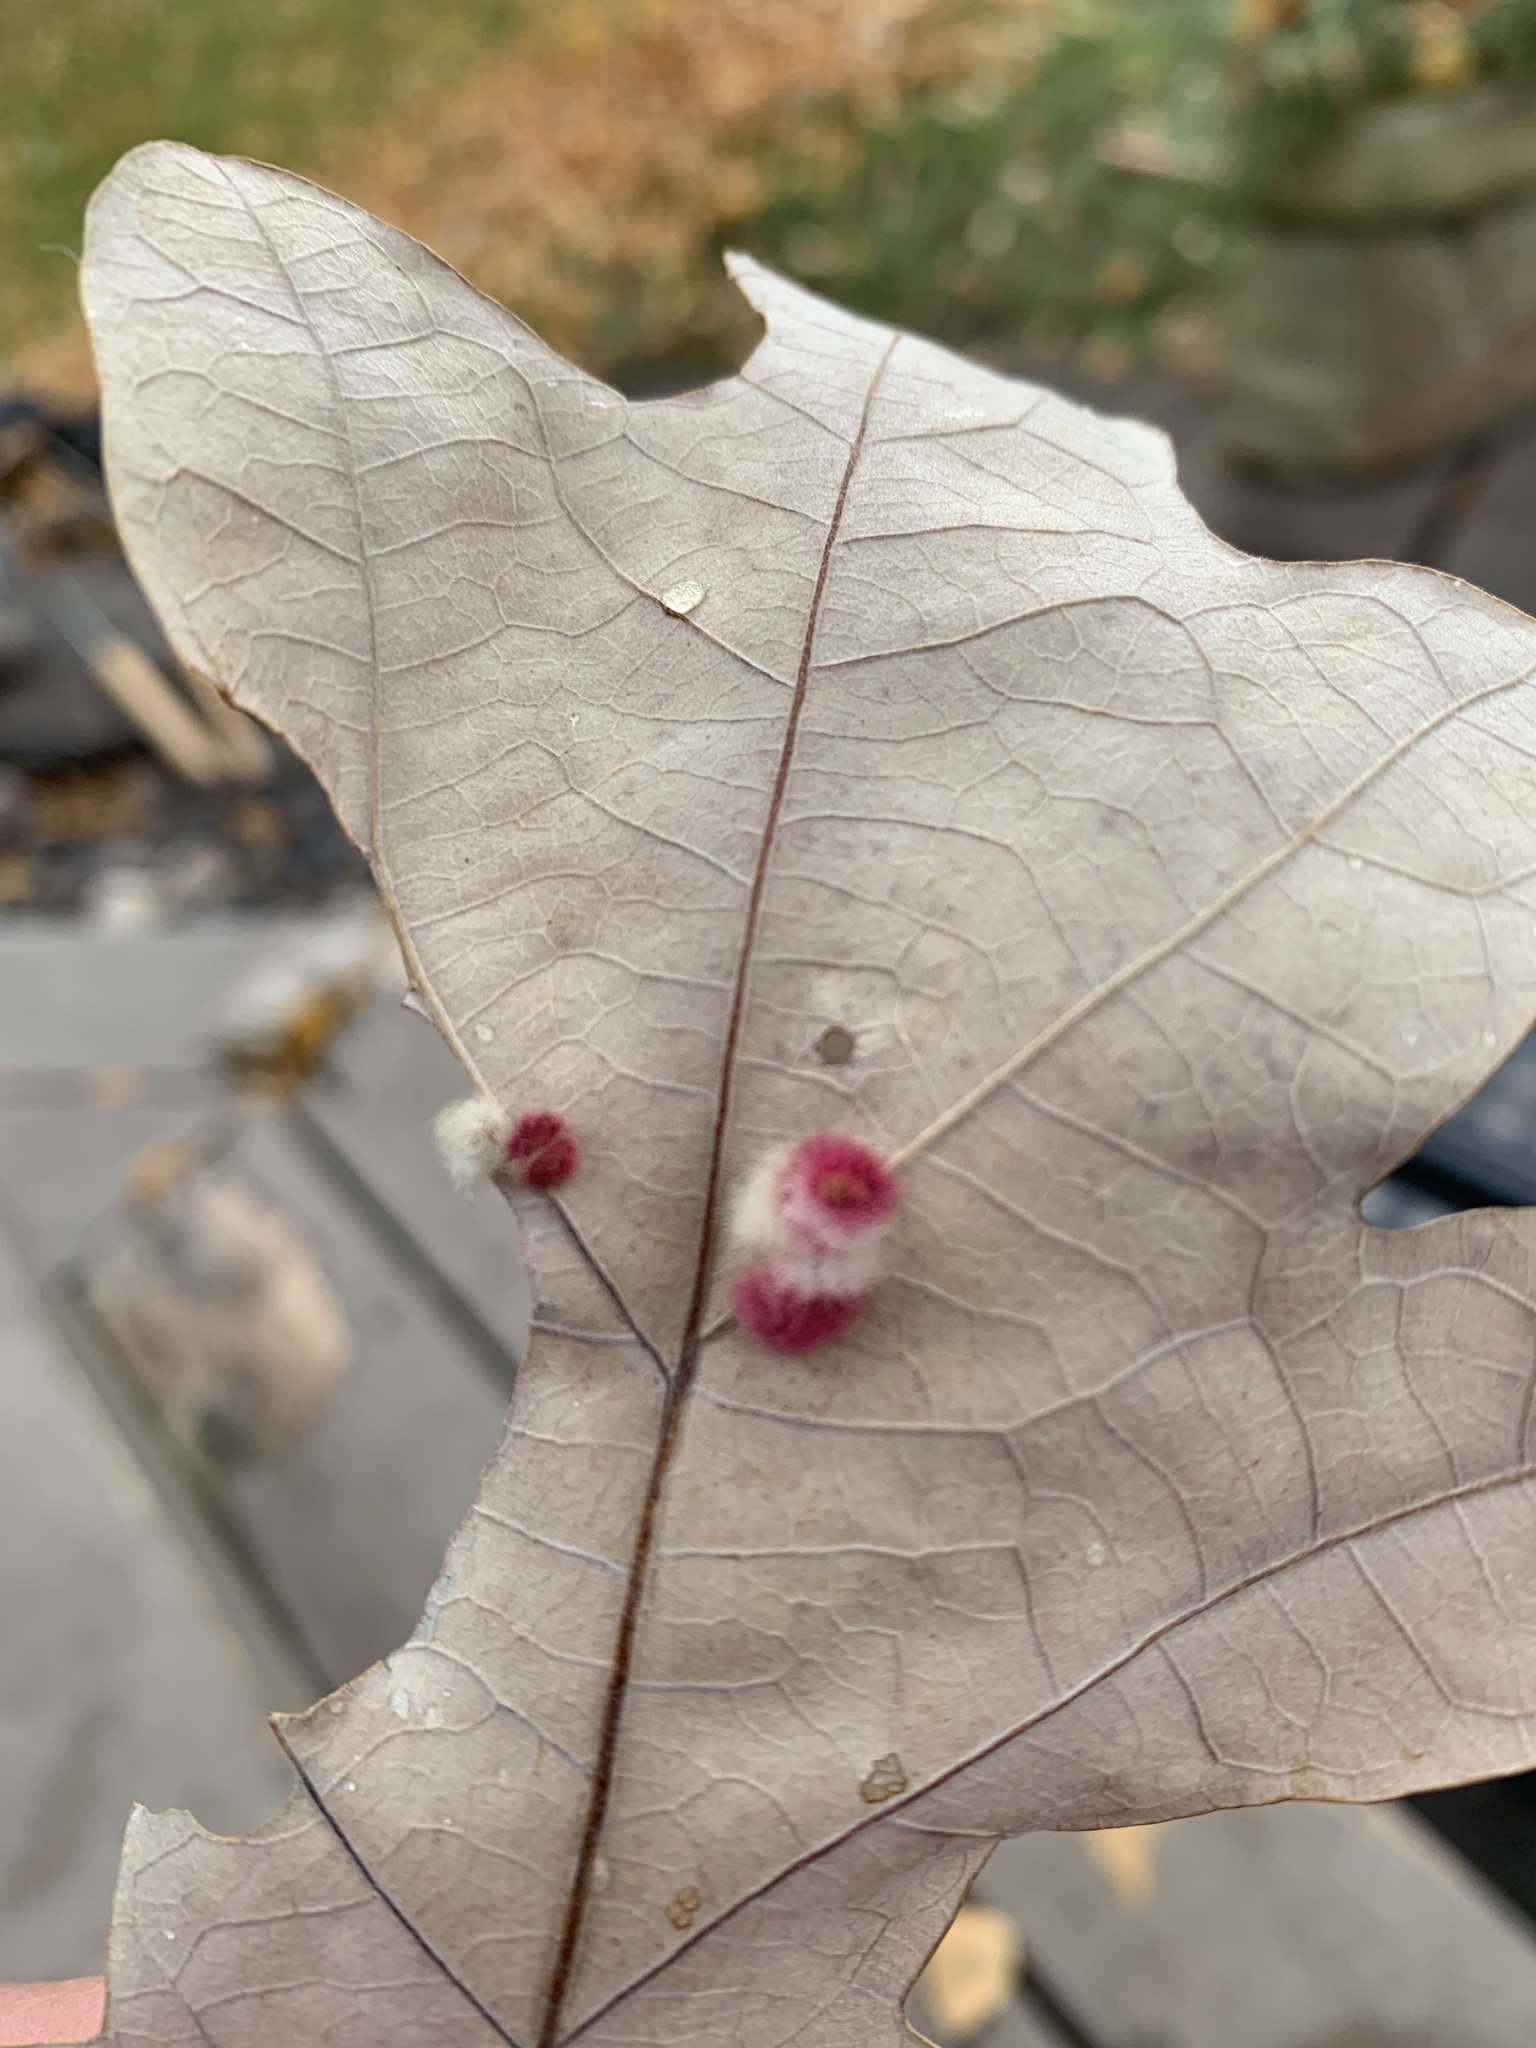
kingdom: Animalia
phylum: Arthropoda
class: Insecta
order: Hymenoptera
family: Cynipidae
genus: Andricus
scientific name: Andricus Druon ignotum
